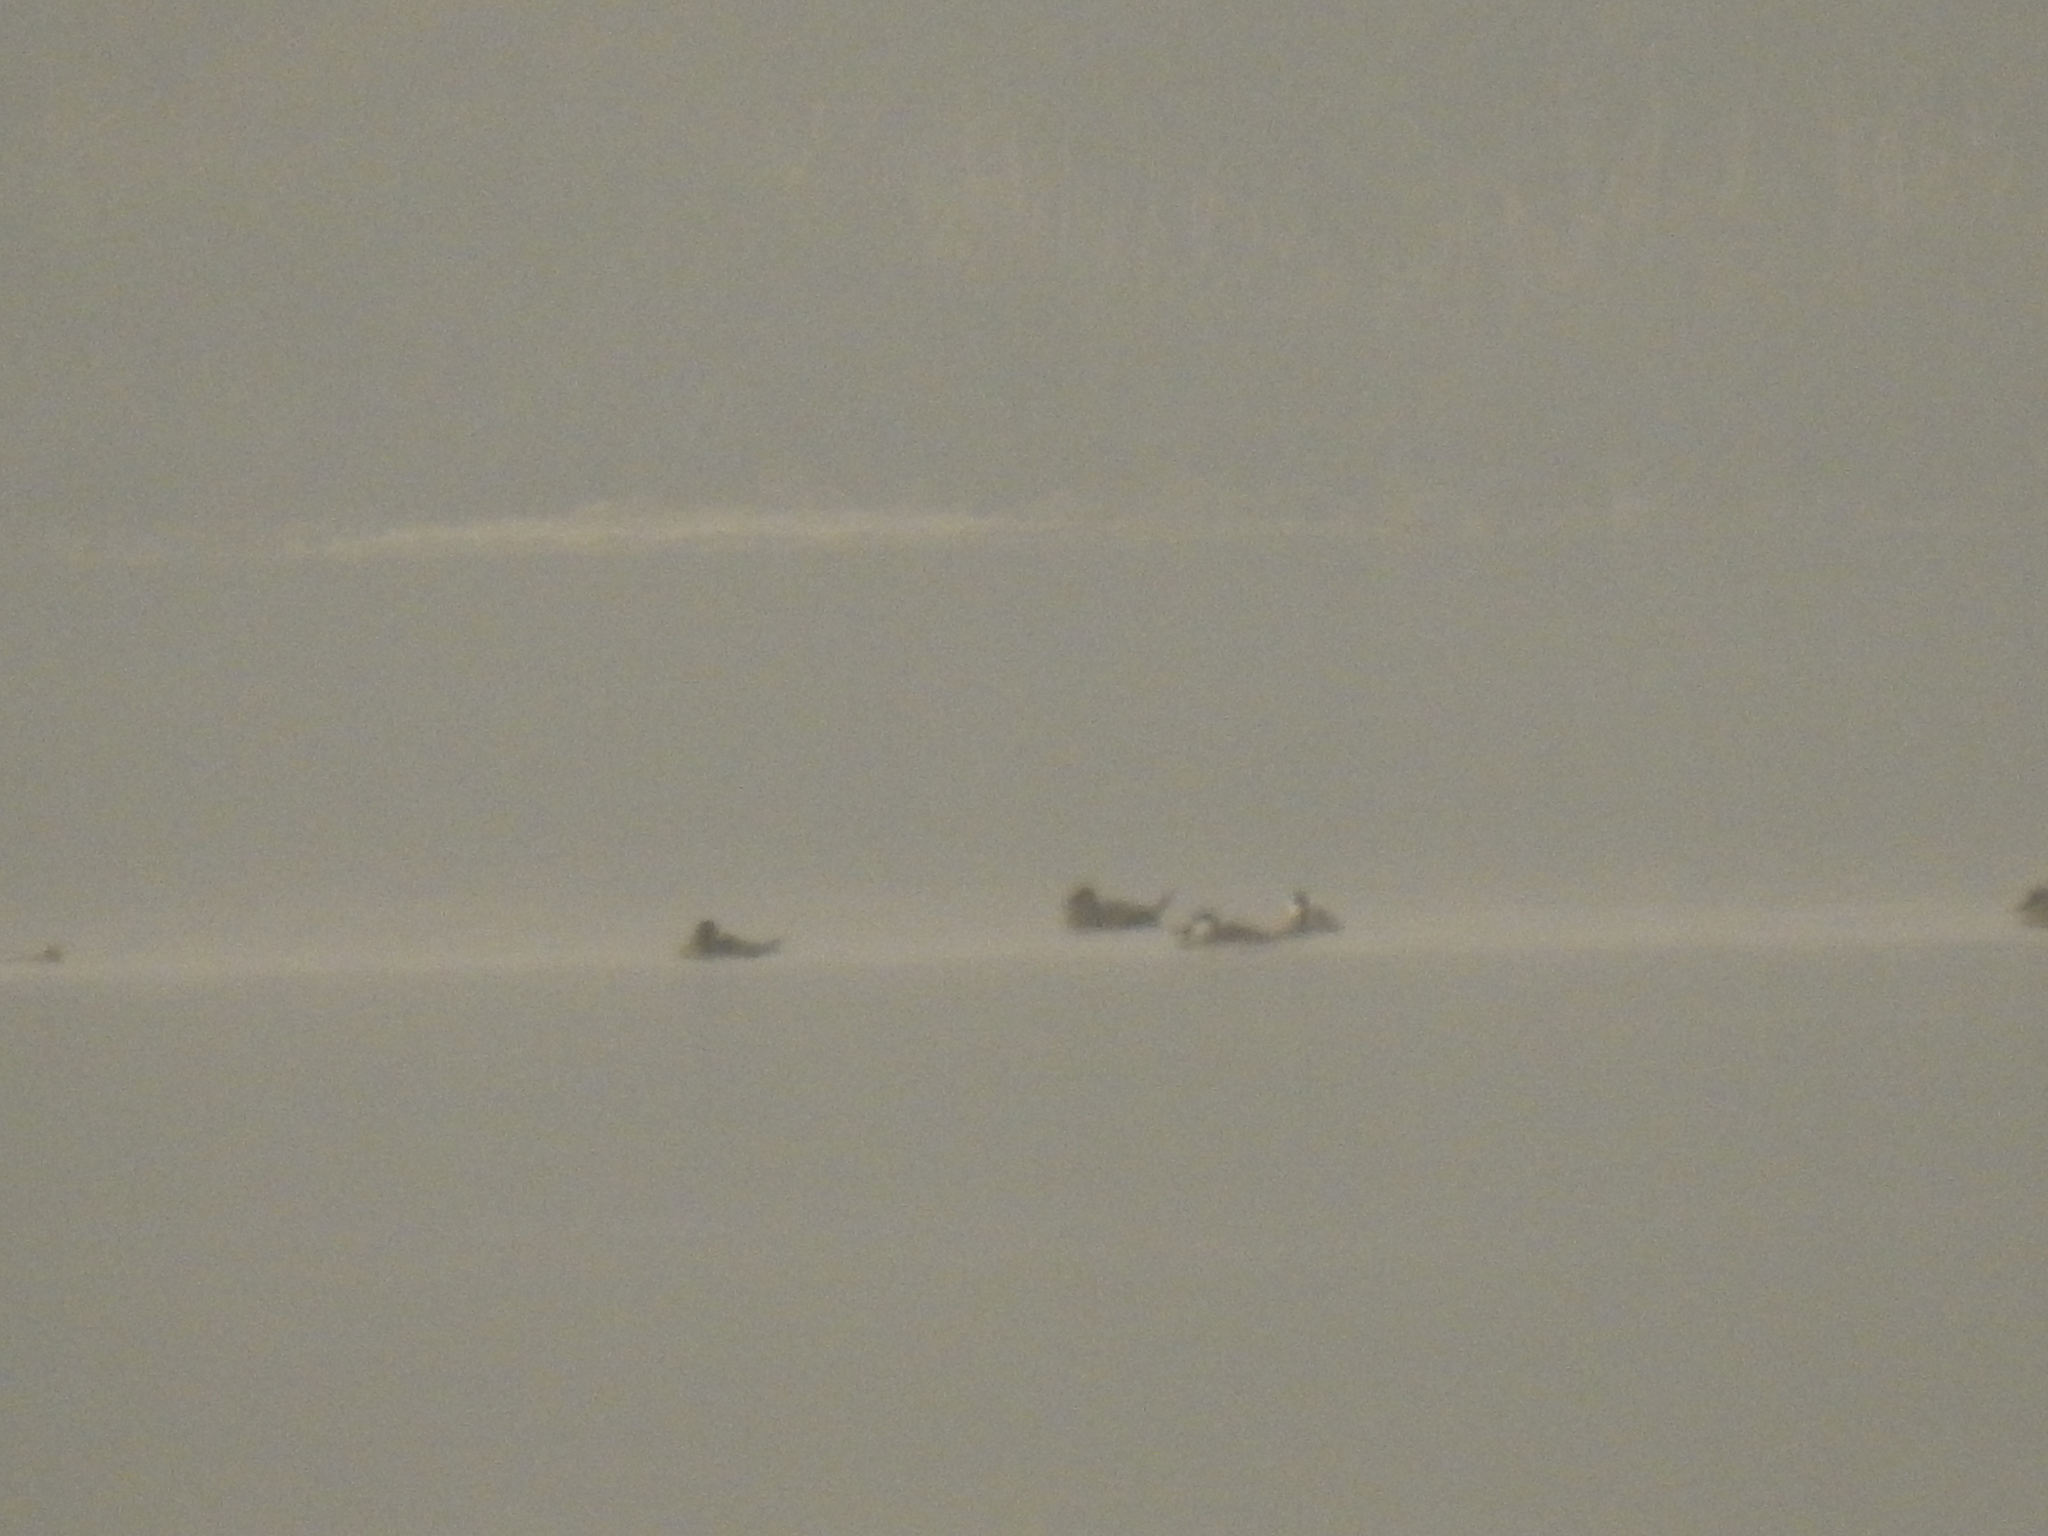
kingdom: Animalia
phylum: Chordata
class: Aves
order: Anseriformes
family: Anatidae
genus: Oxyura
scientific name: Oxyura jamaicensis
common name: Ruddy duck
